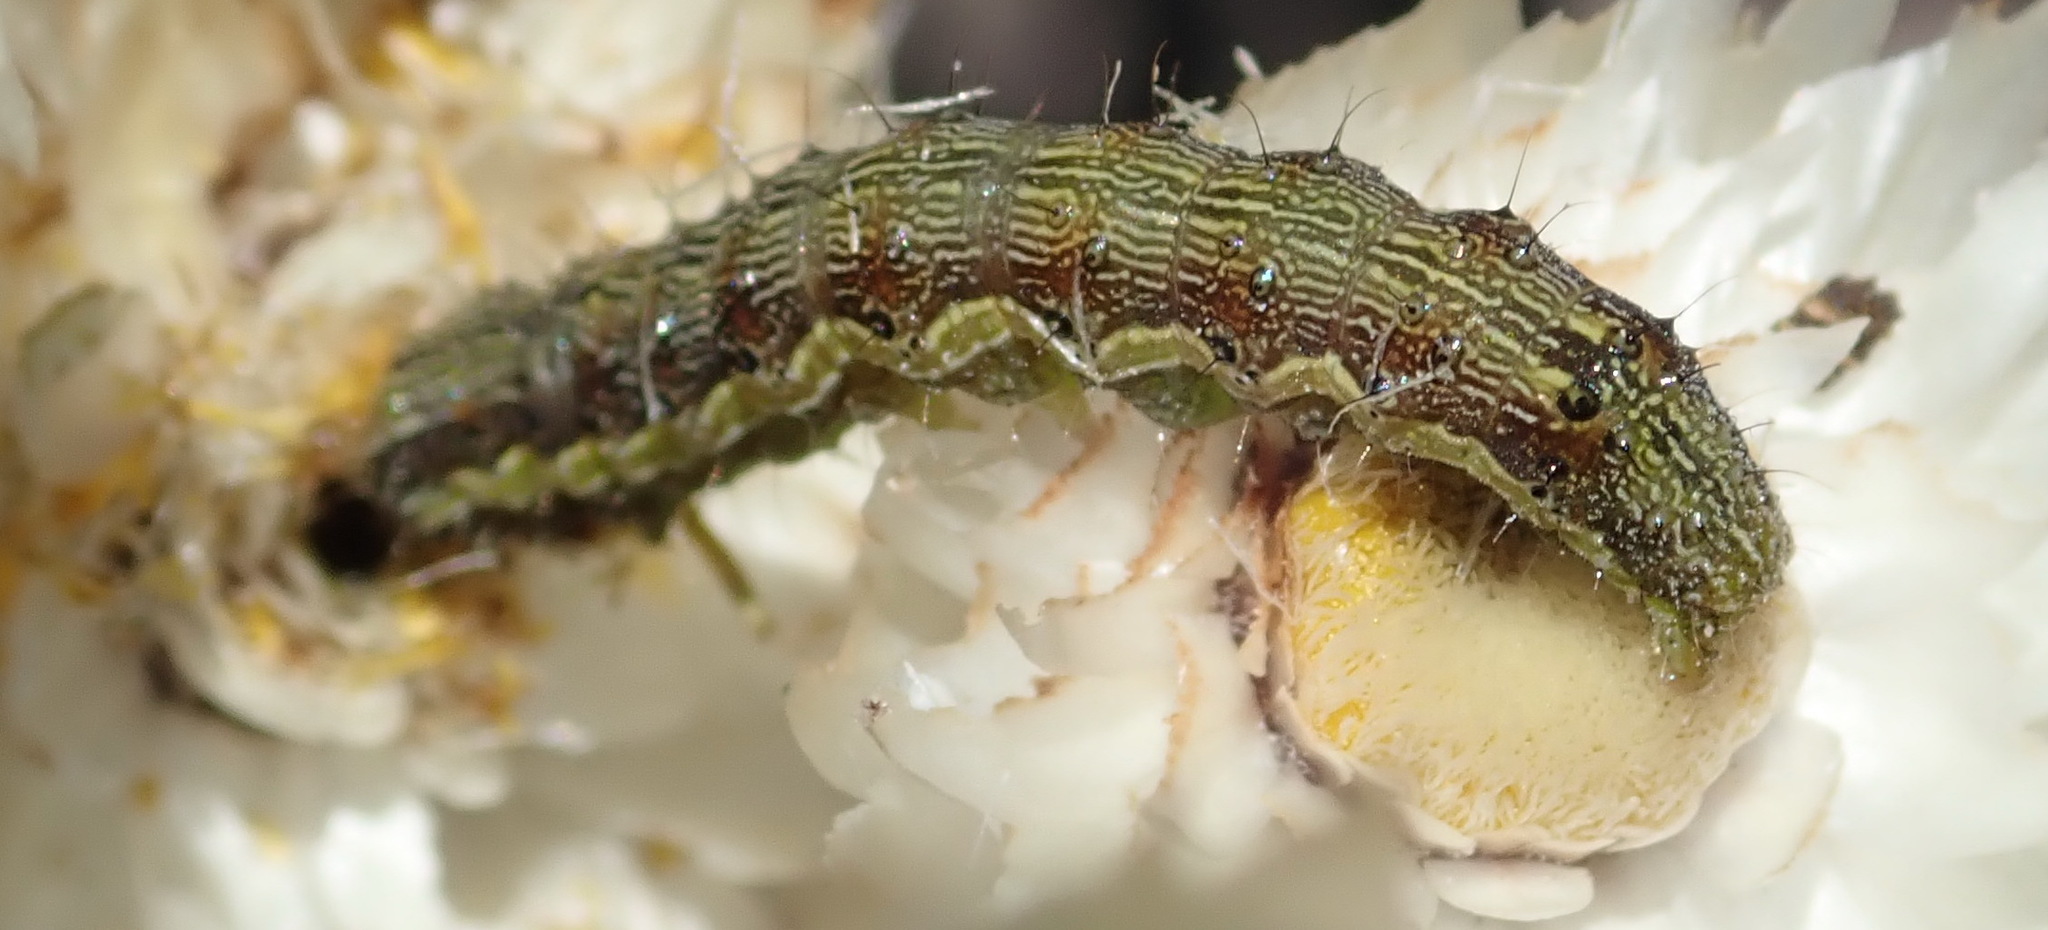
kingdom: Animalia
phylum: Arthropoda
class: Insecta
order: Lepidoptera
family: Noctuidae
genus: Helicoverpa
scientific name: Helicoverpa armigera
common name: Cotton bollworm
